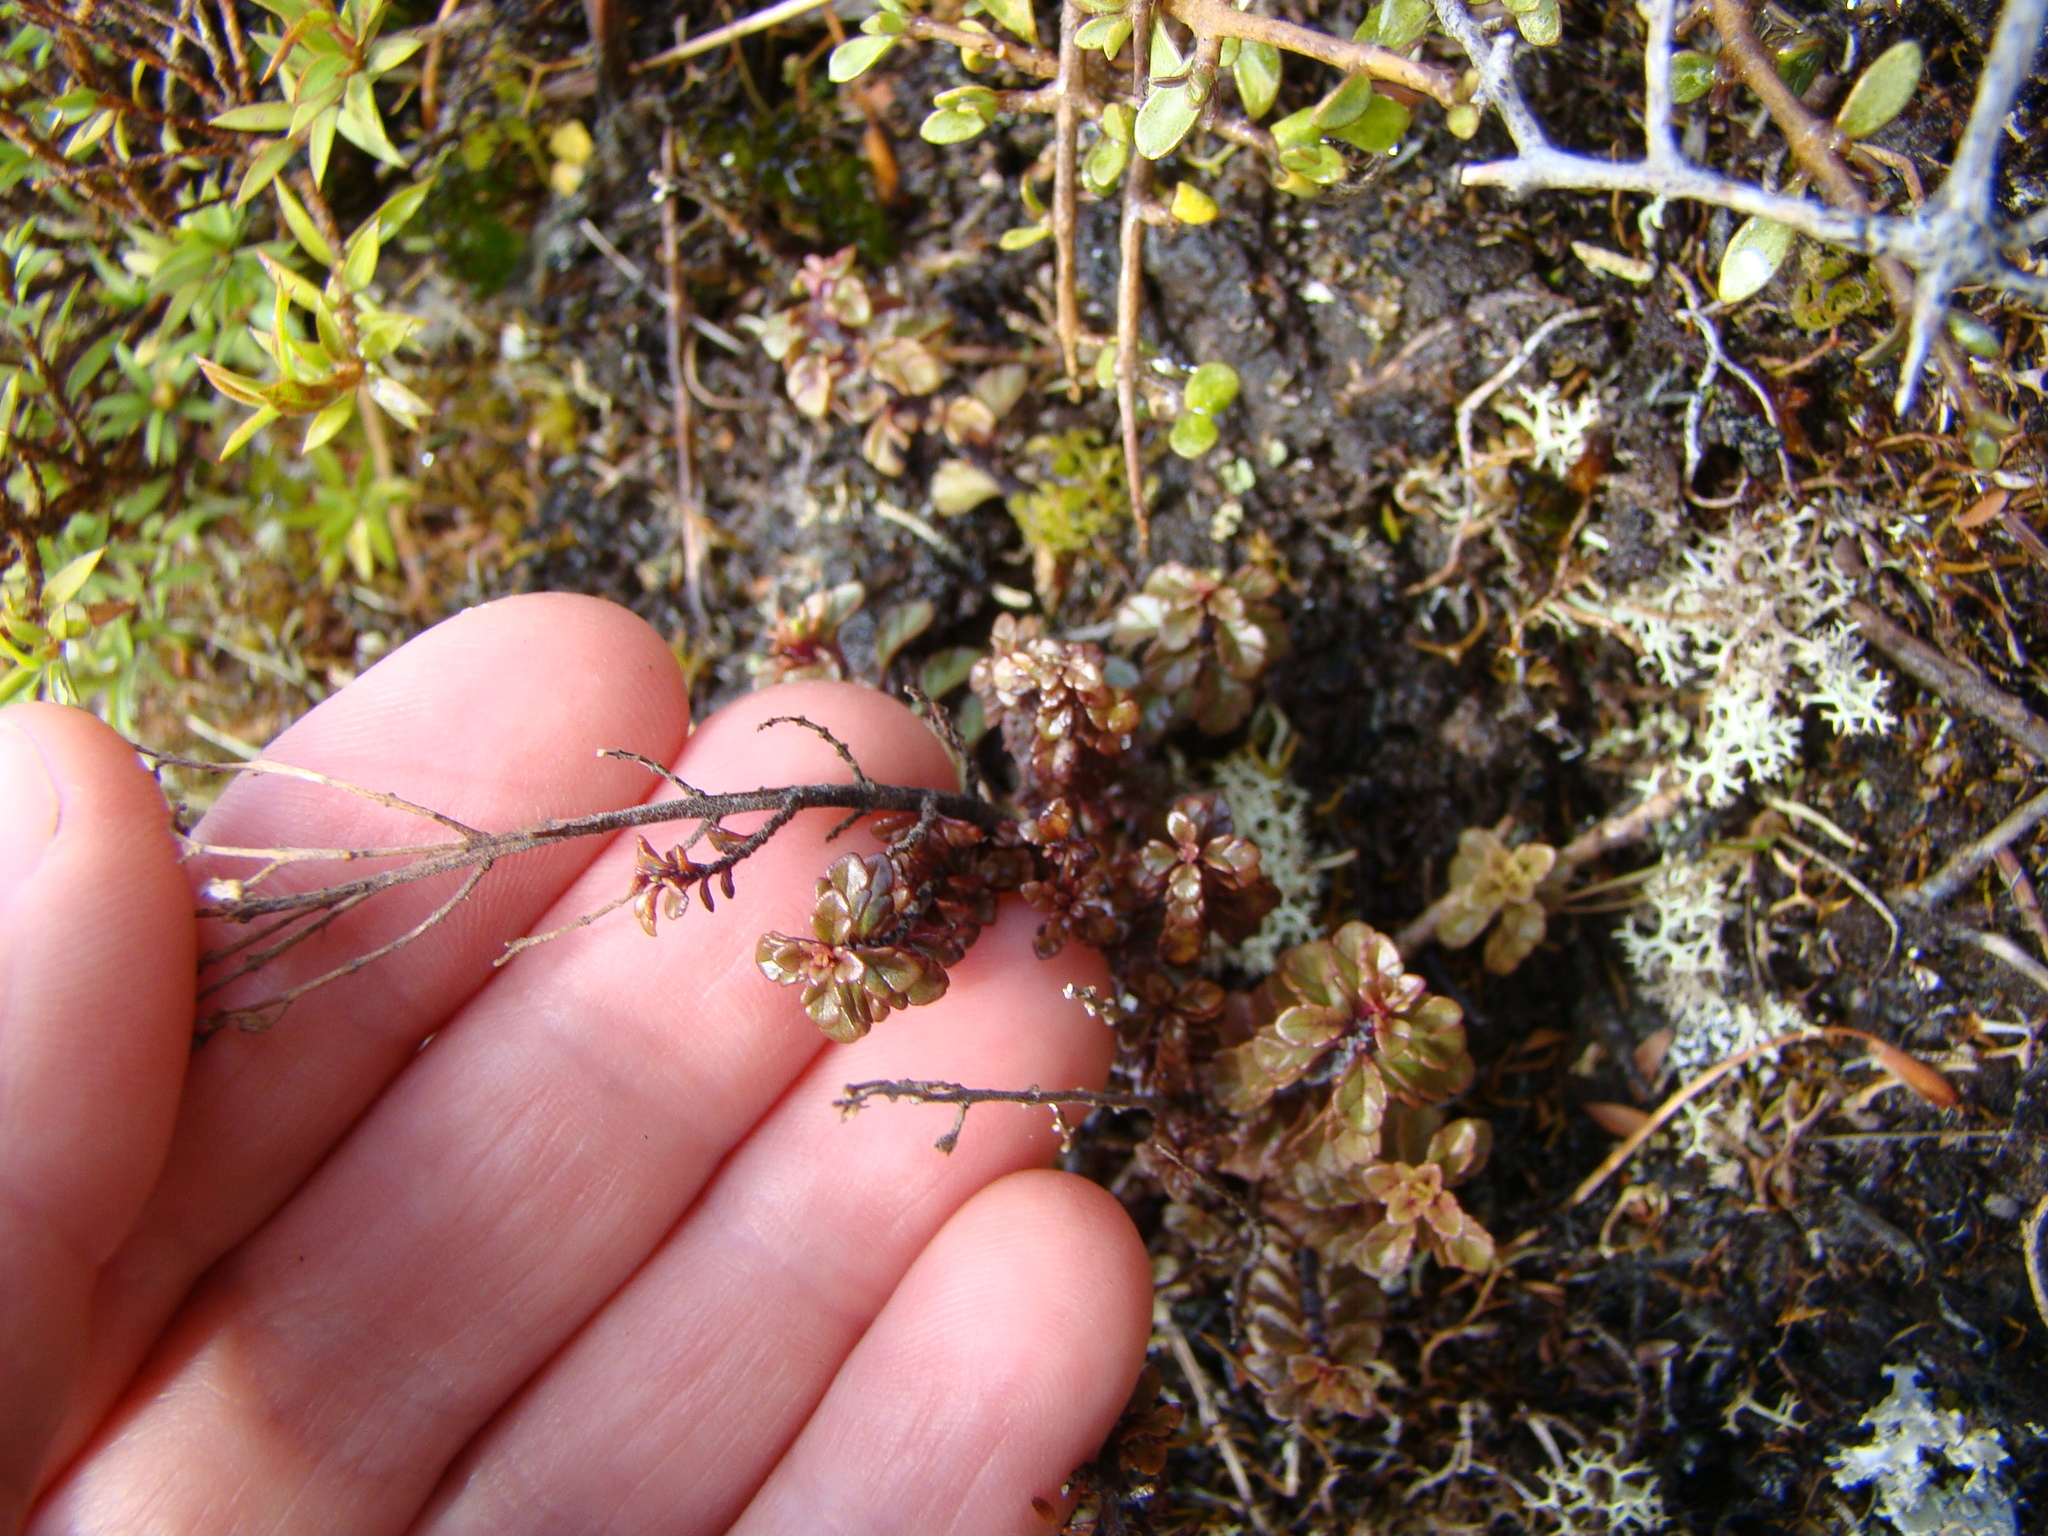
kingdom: Plantae
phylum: Tracheophyta
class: Magnoliopsida
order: Lamiales
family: Orobanchaceae
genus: Euphrasia
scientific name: Euphrasia cuneata
